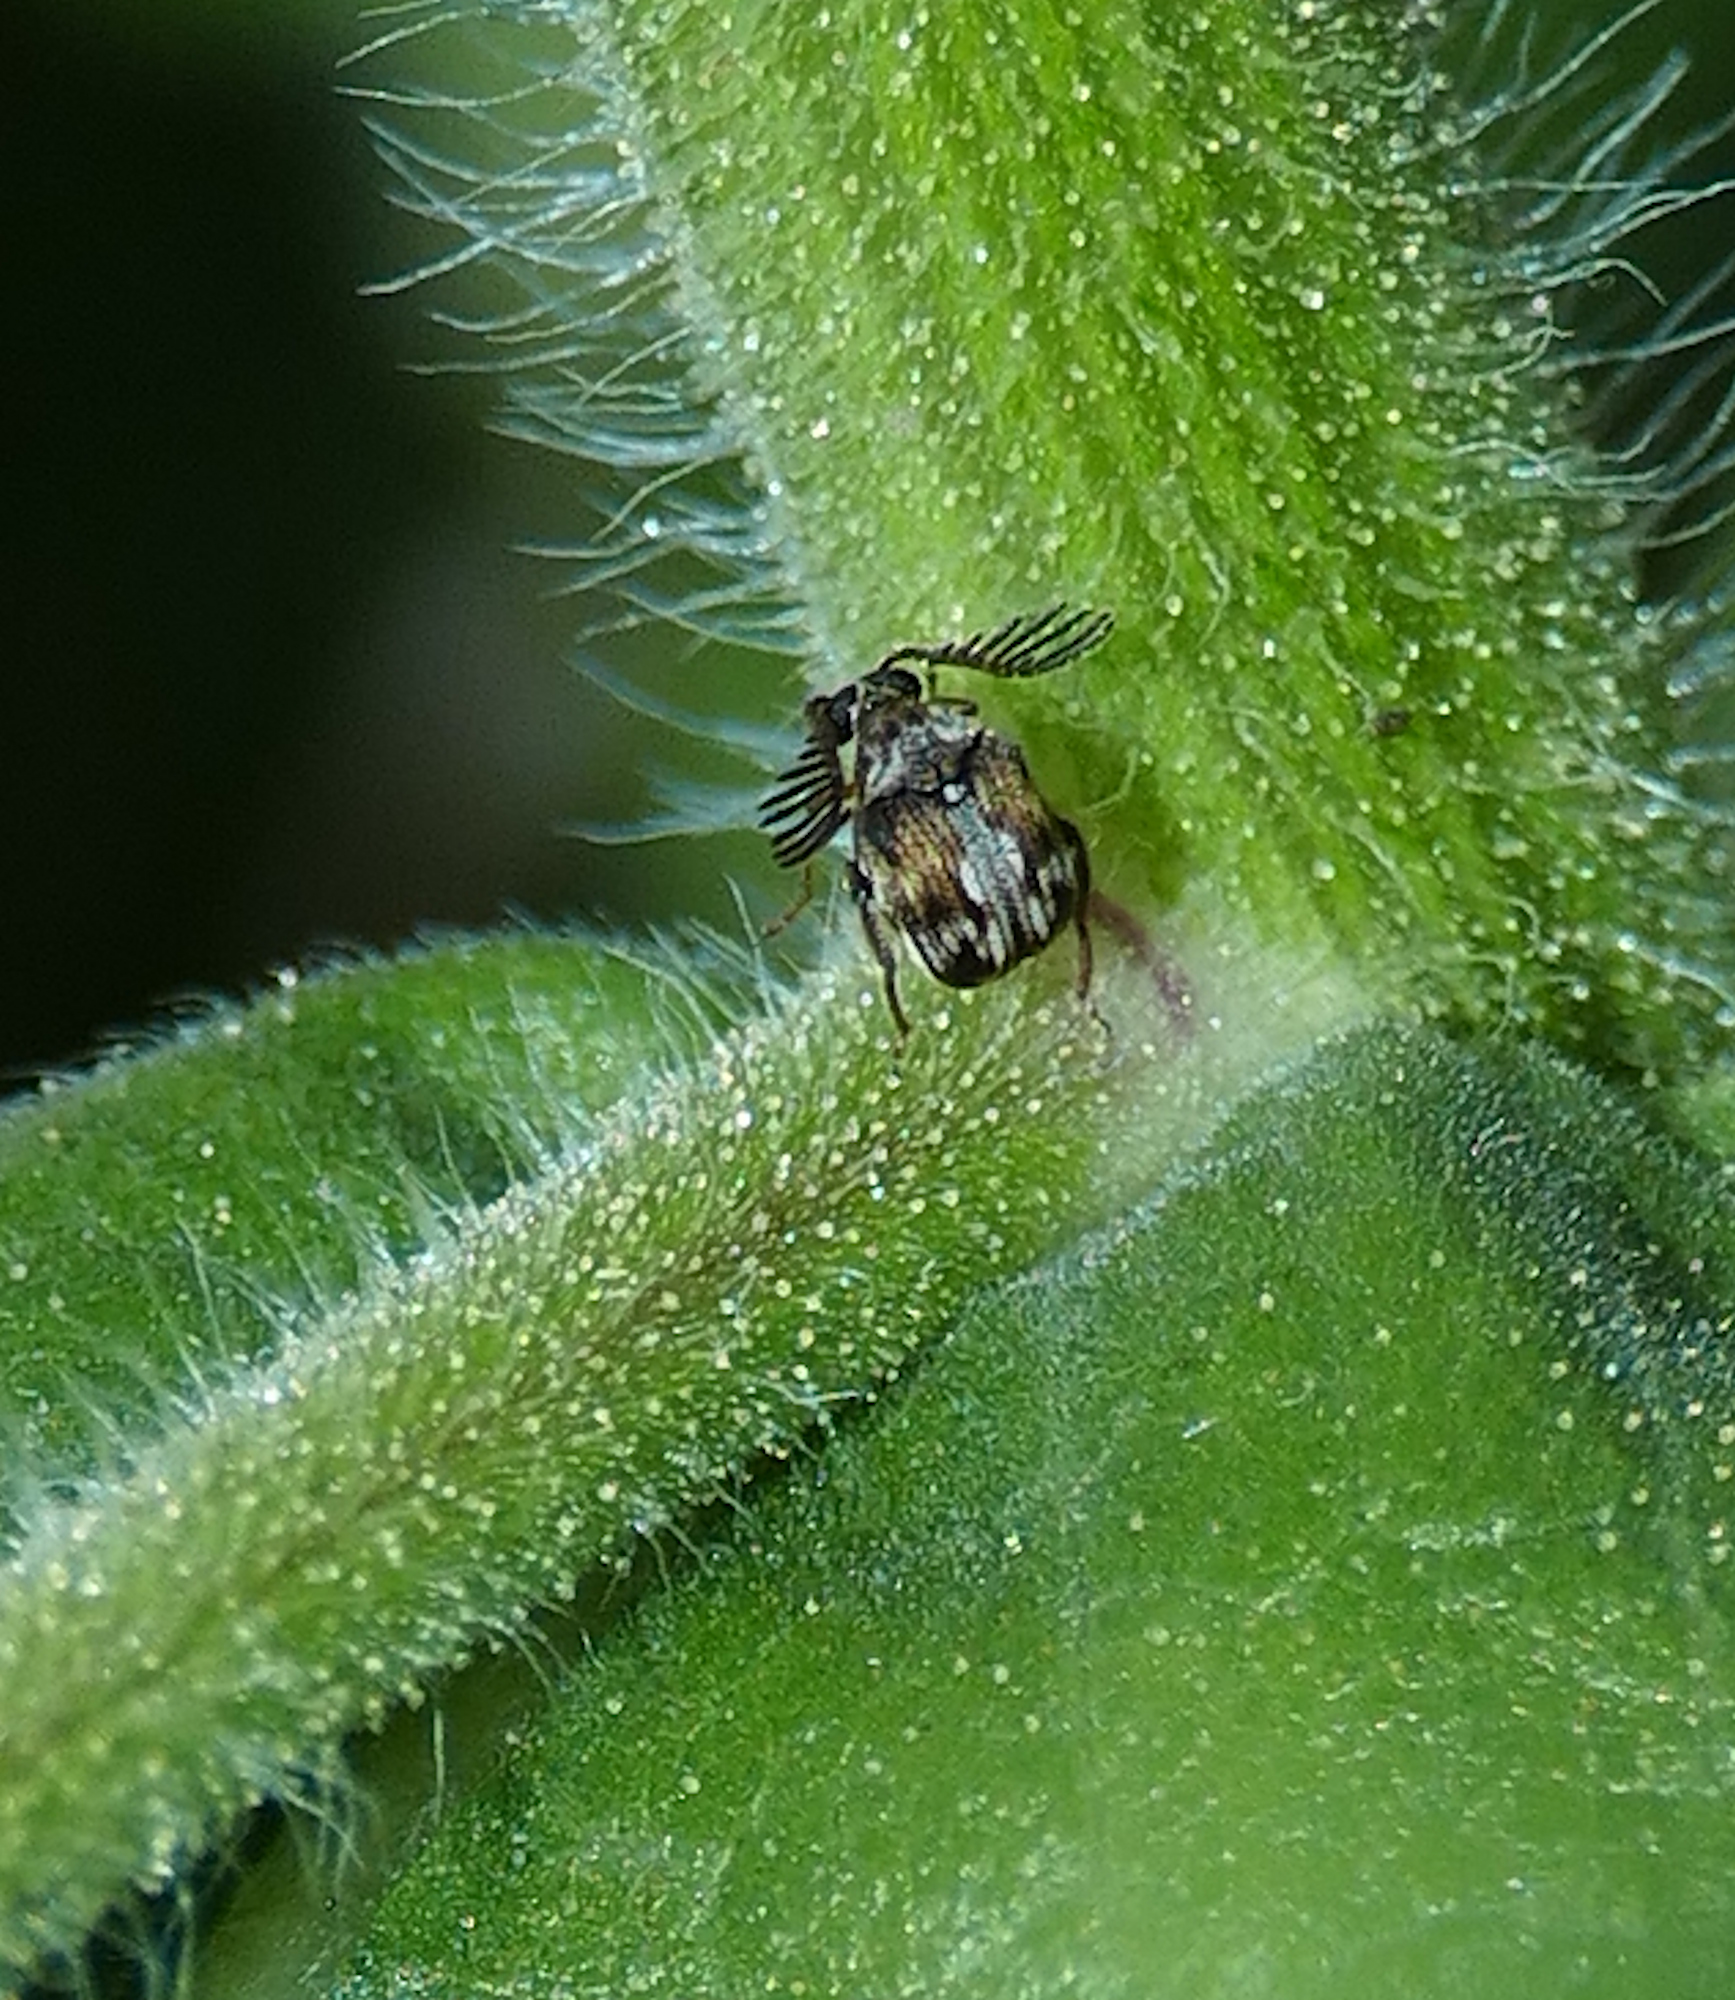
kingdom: Animalia
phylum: Arthropoda
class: Insecta
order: Coleoptera
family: Chrysomelidae
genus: Megacerus
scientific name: Megacerus cubiculus
